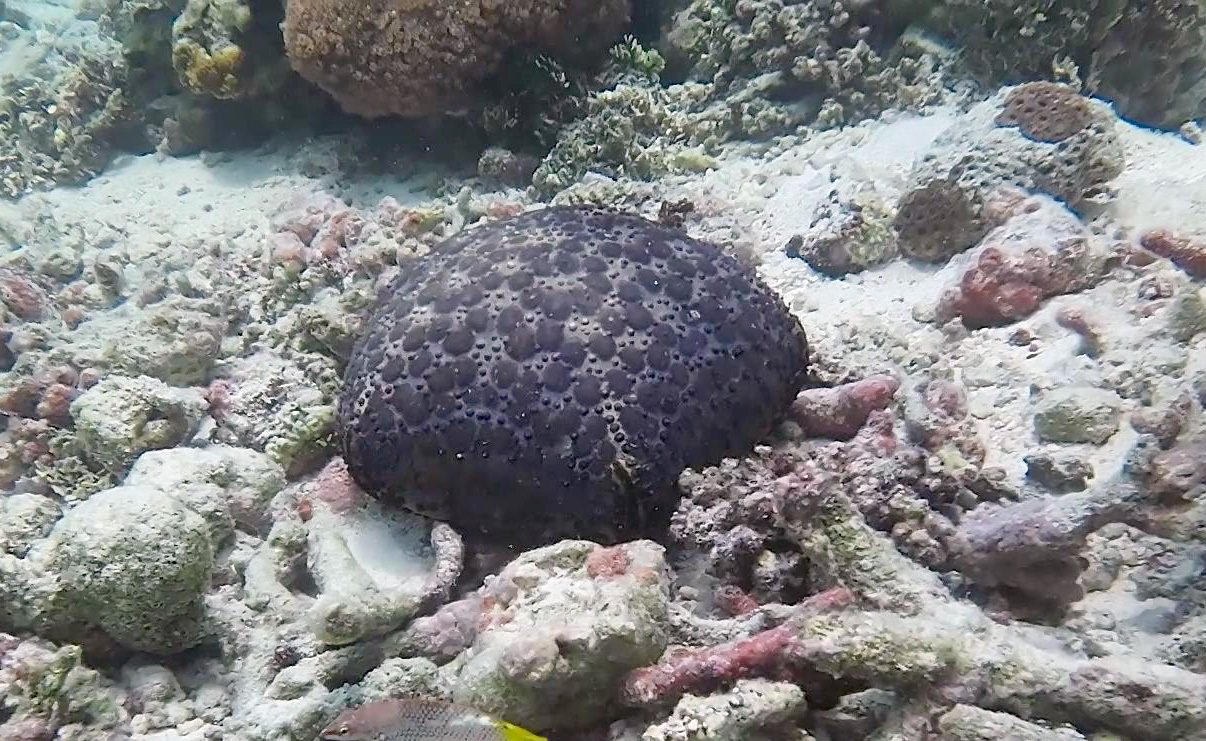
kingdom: Animalia
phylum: Echinodermata
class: Asteroidea
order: Valvatida
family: Oreasteridae
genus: Culcita
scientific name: Culcita schmideliana
